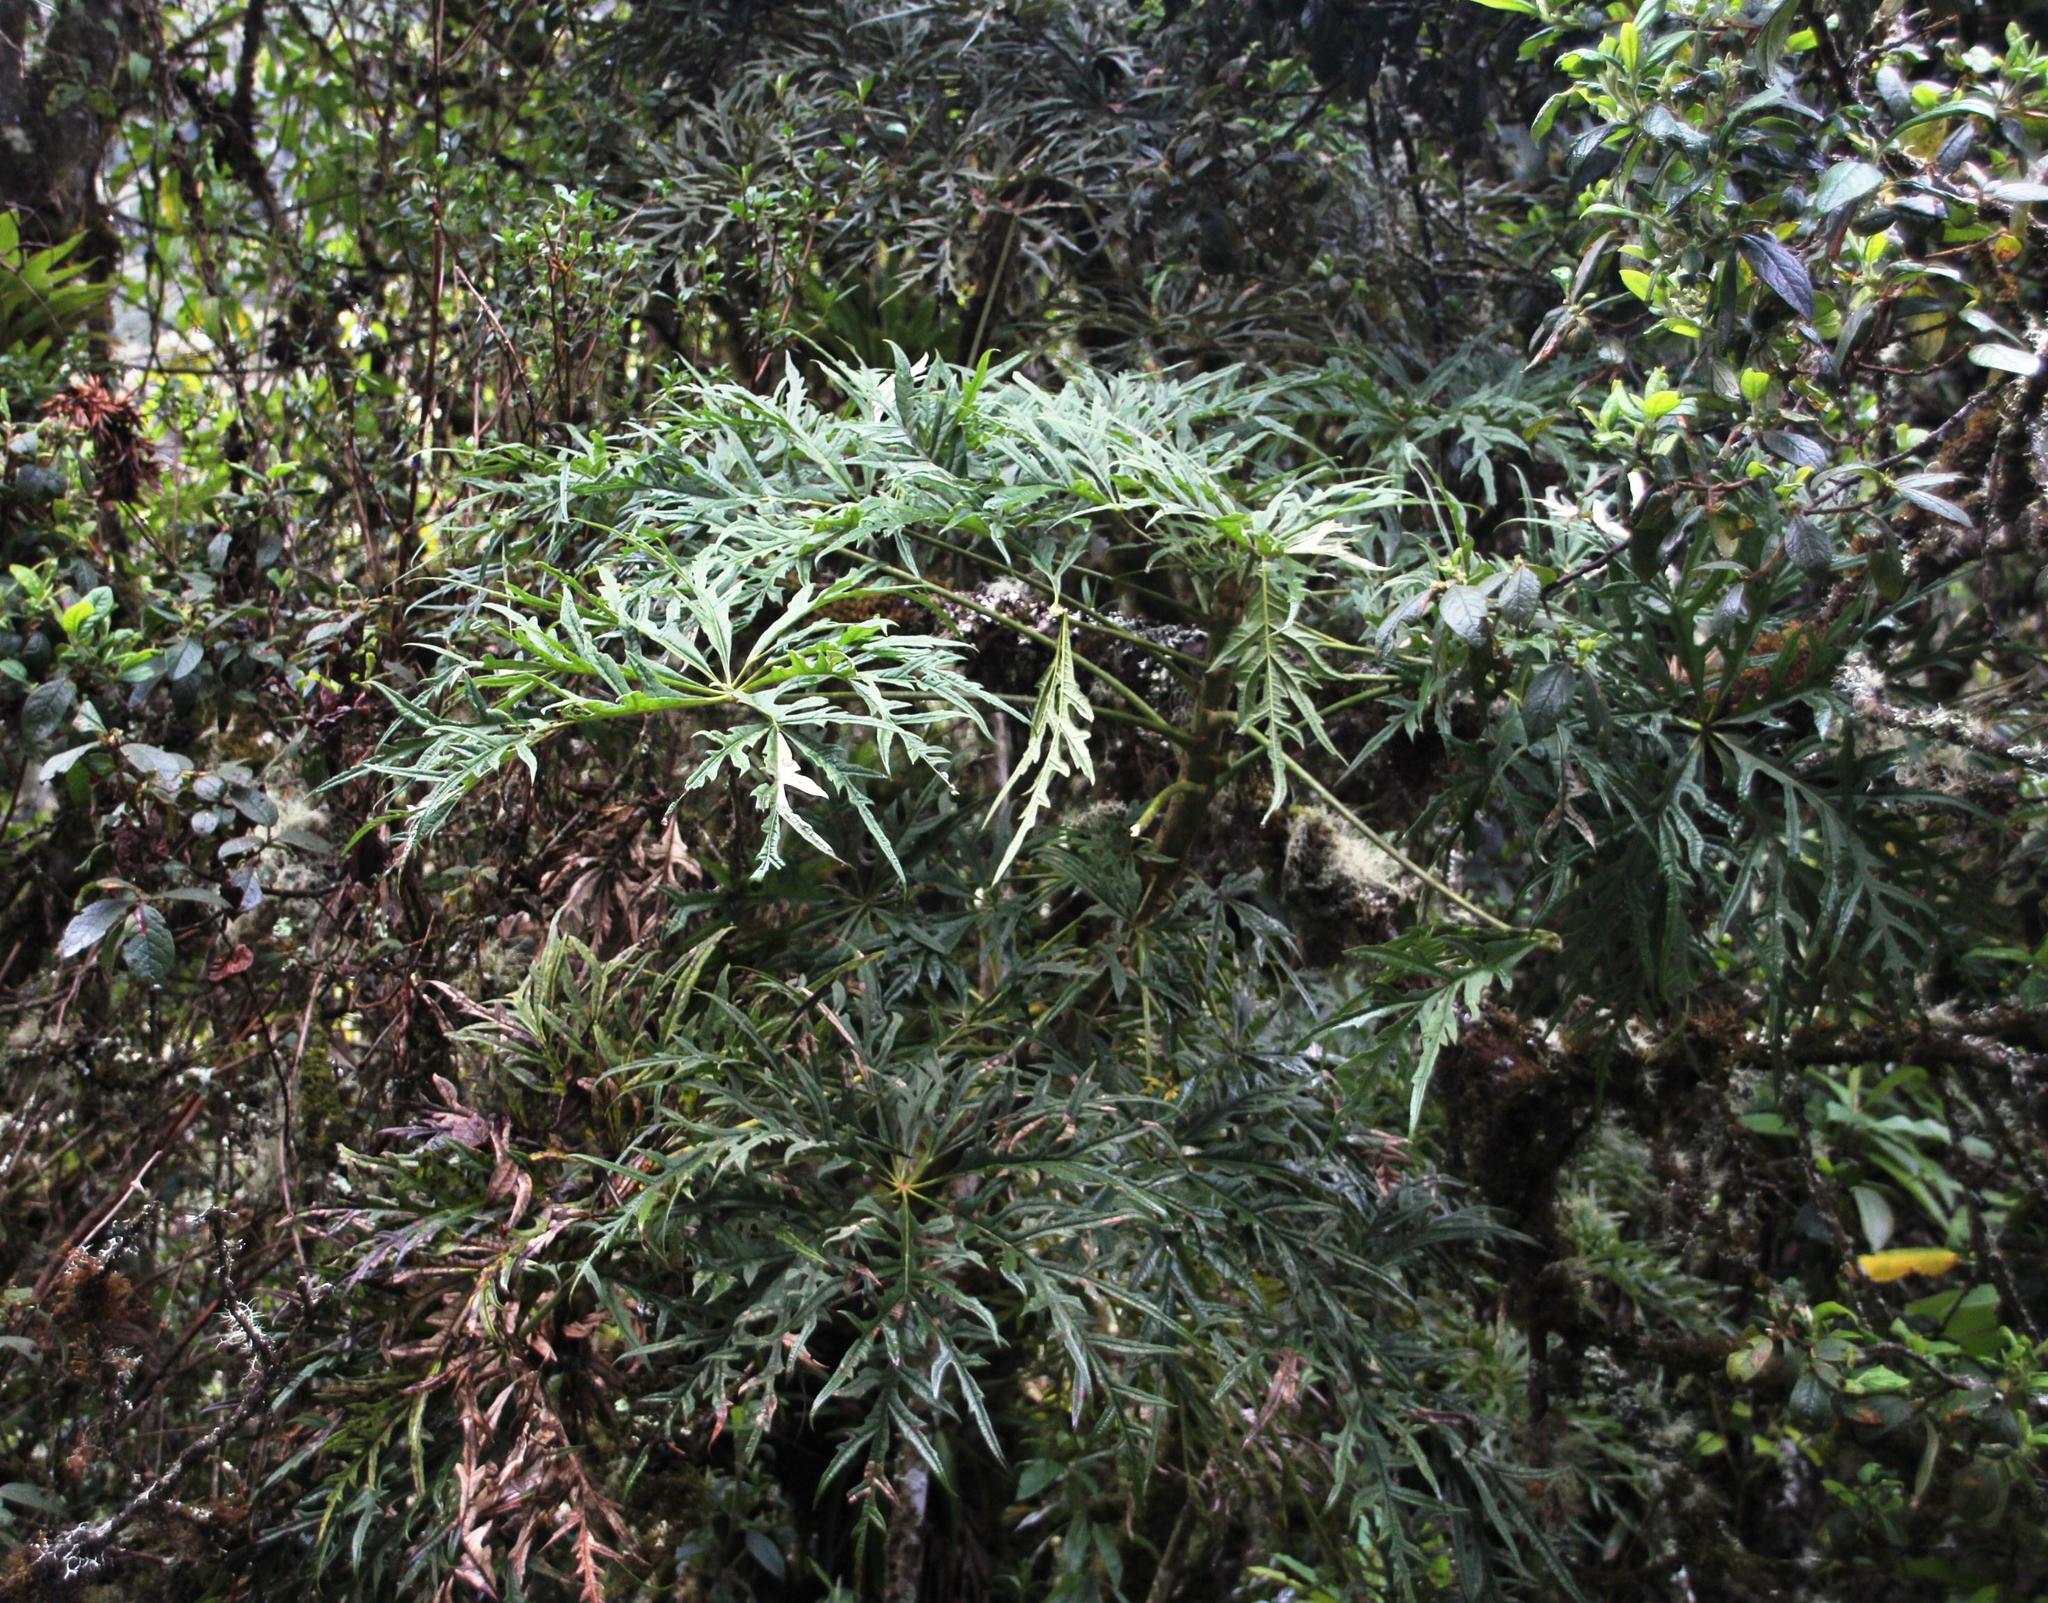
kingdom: Plantae
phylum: Tracheophyta
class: Magnoliopsida
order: Apiales
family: Araliaceae
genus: Oreopanax
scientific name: Oreopanax thaumasiophyllus
